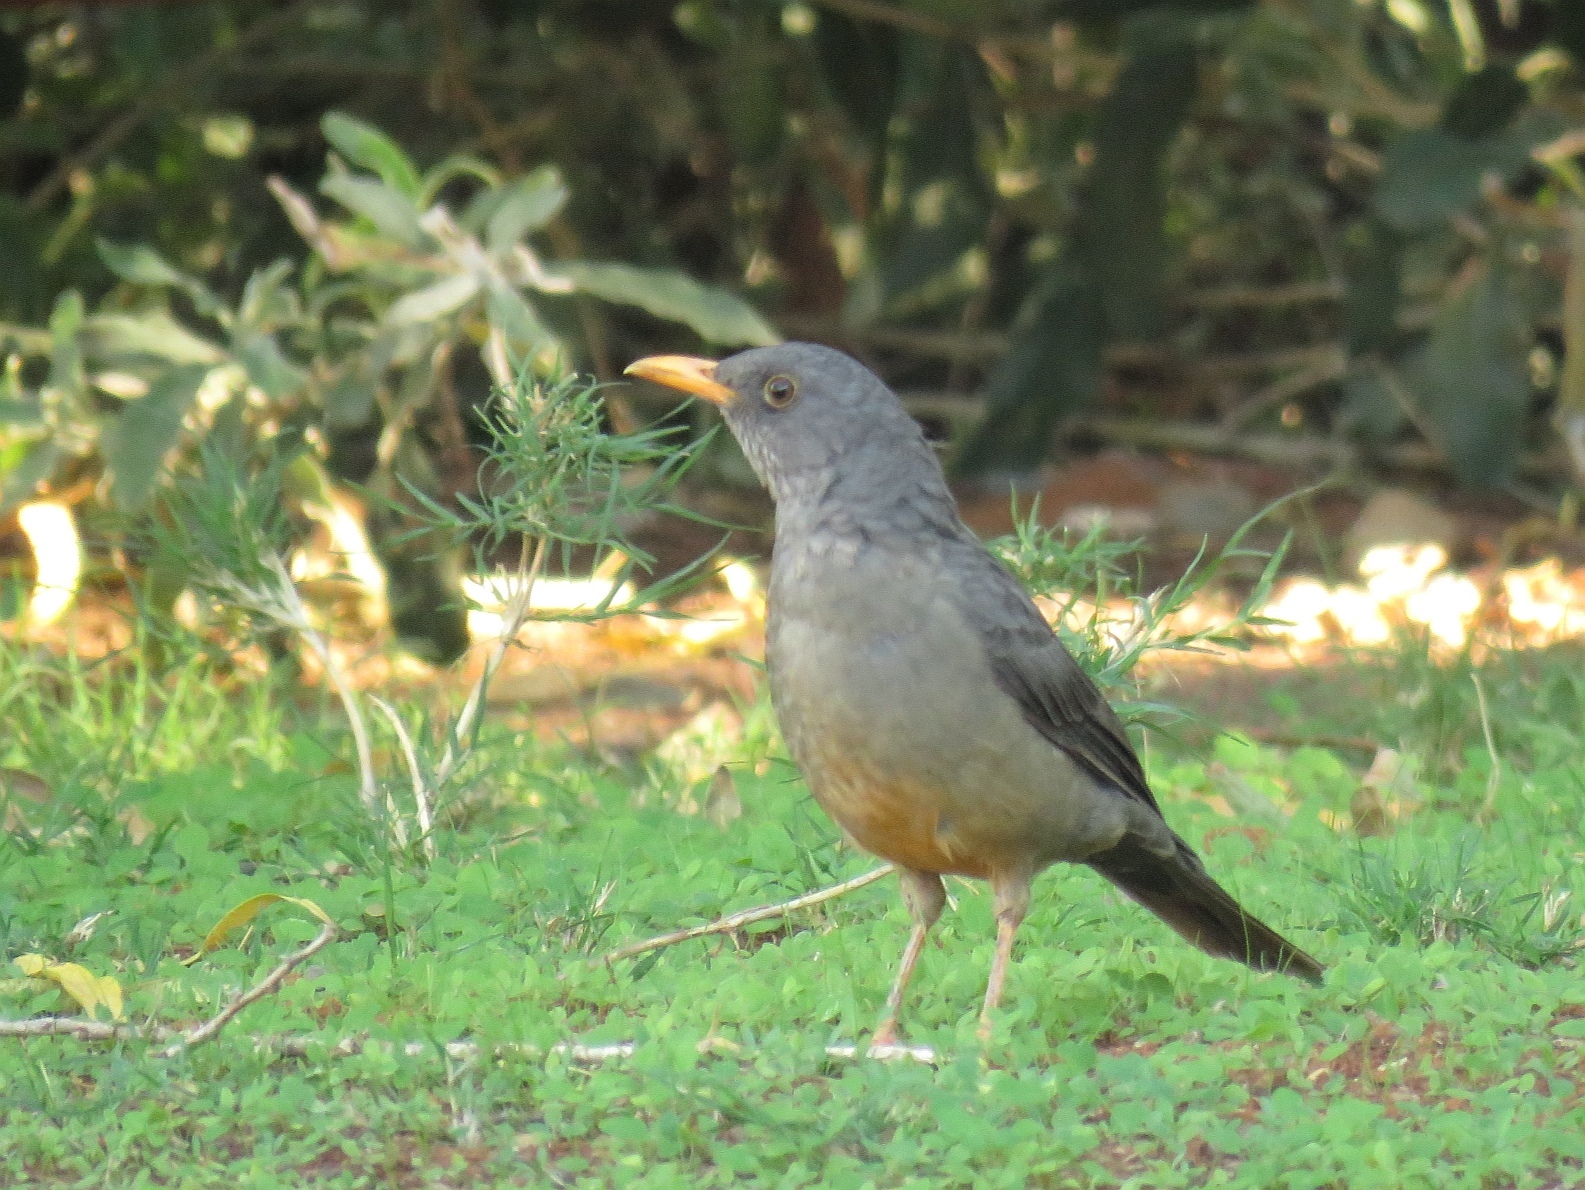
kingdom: Animalia
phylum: Chordata
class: Aves
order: Passeriformes
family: Turdidae
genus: Turdus
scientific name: Turdus smithi
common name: Karoo thrush
